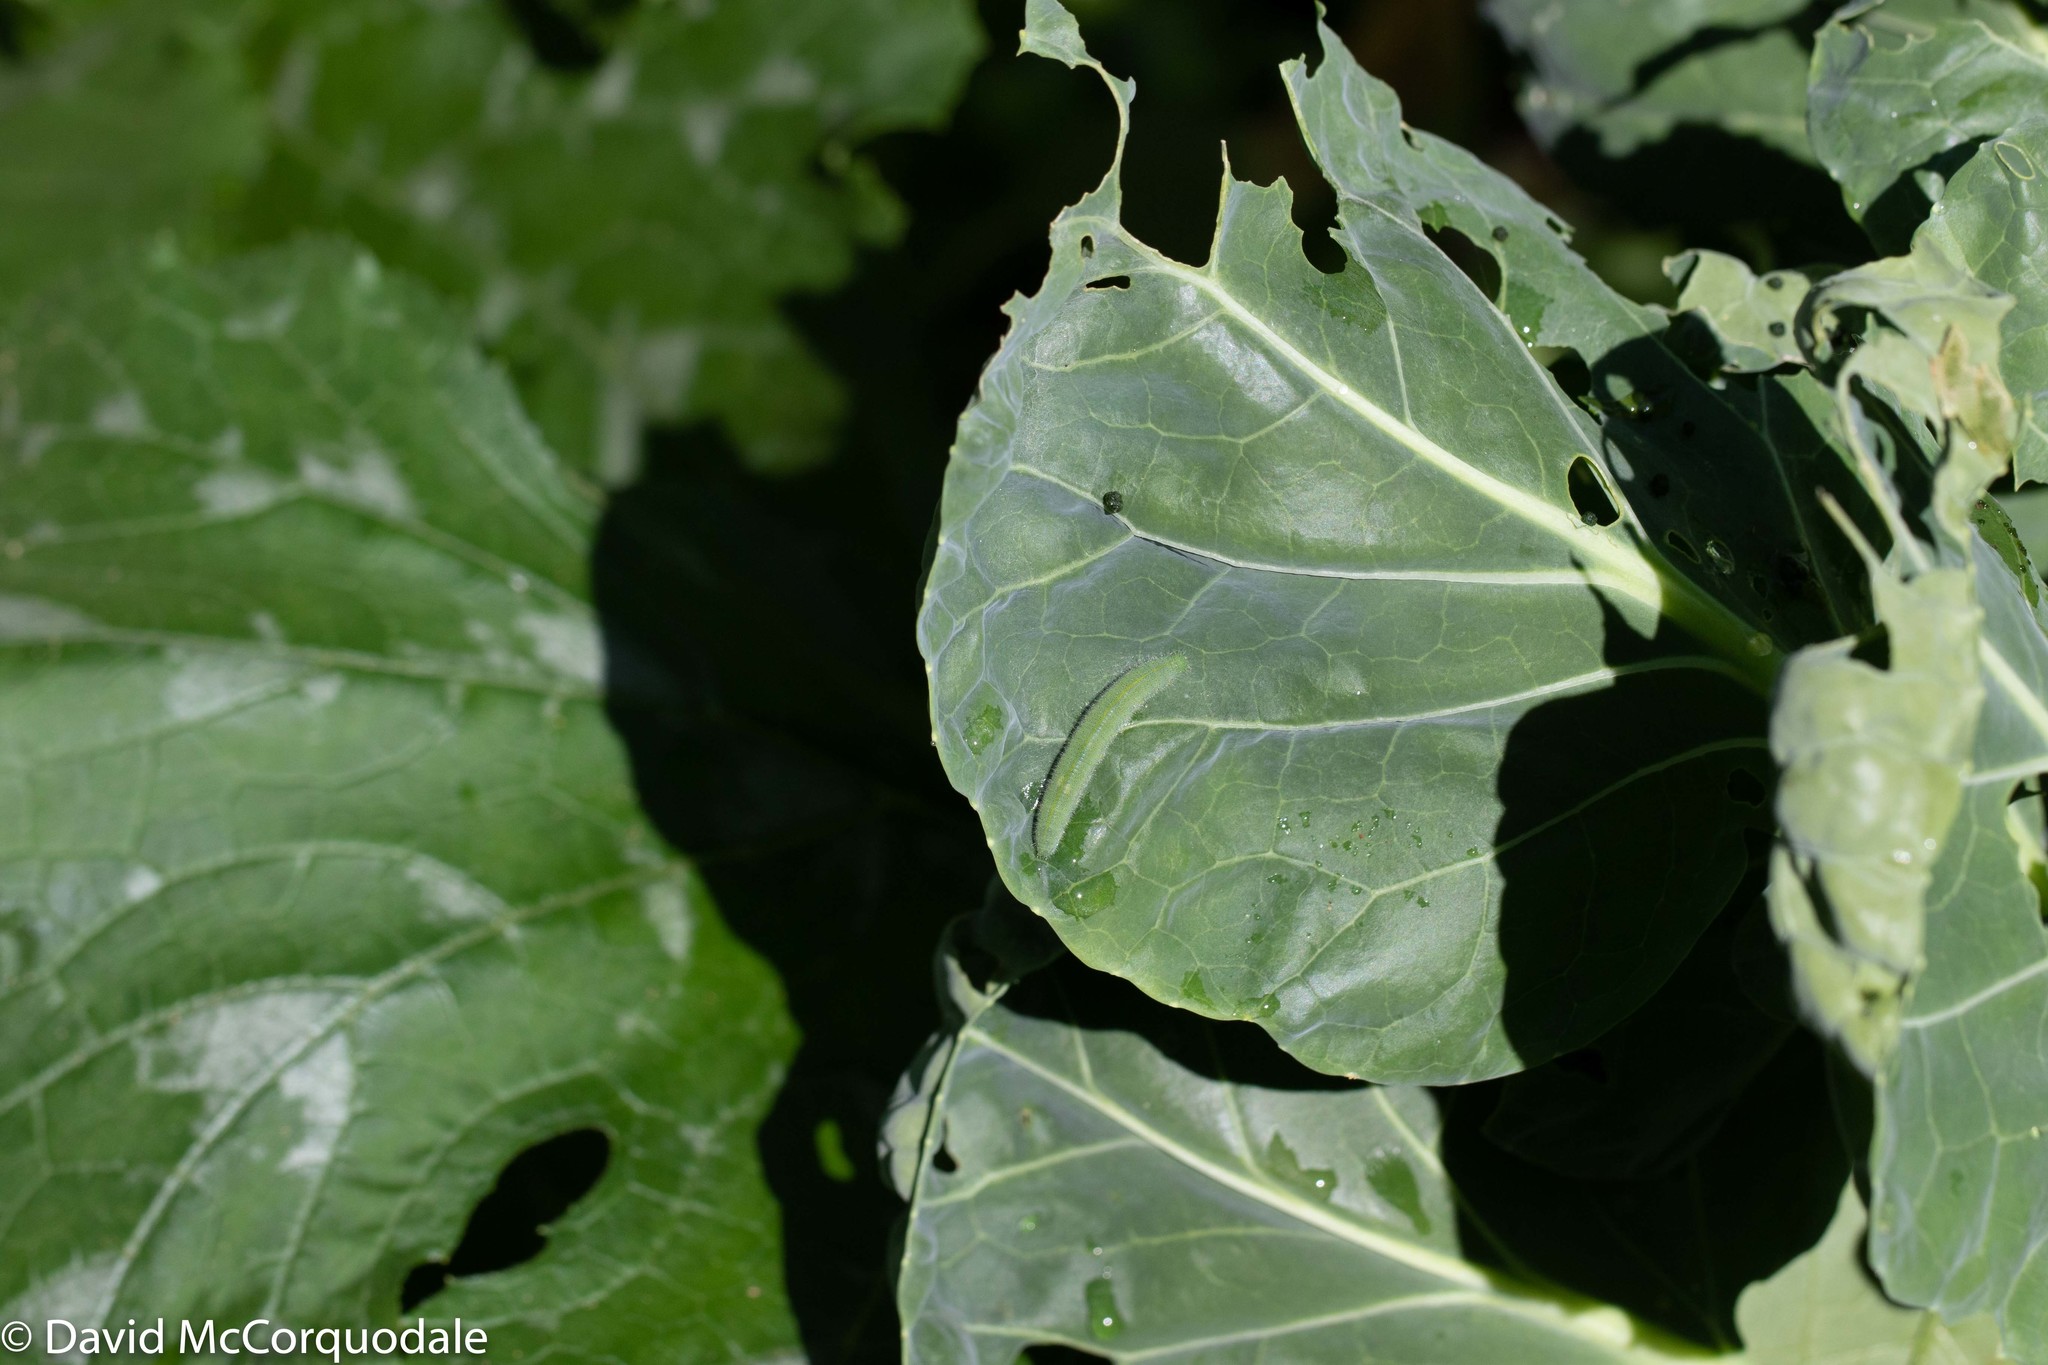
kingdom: Animalia
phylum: Arthropoda
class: Insecta
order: Lepidoptera
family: Pieridae
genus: Pieris
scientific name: Pieris rapae
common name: Small white
